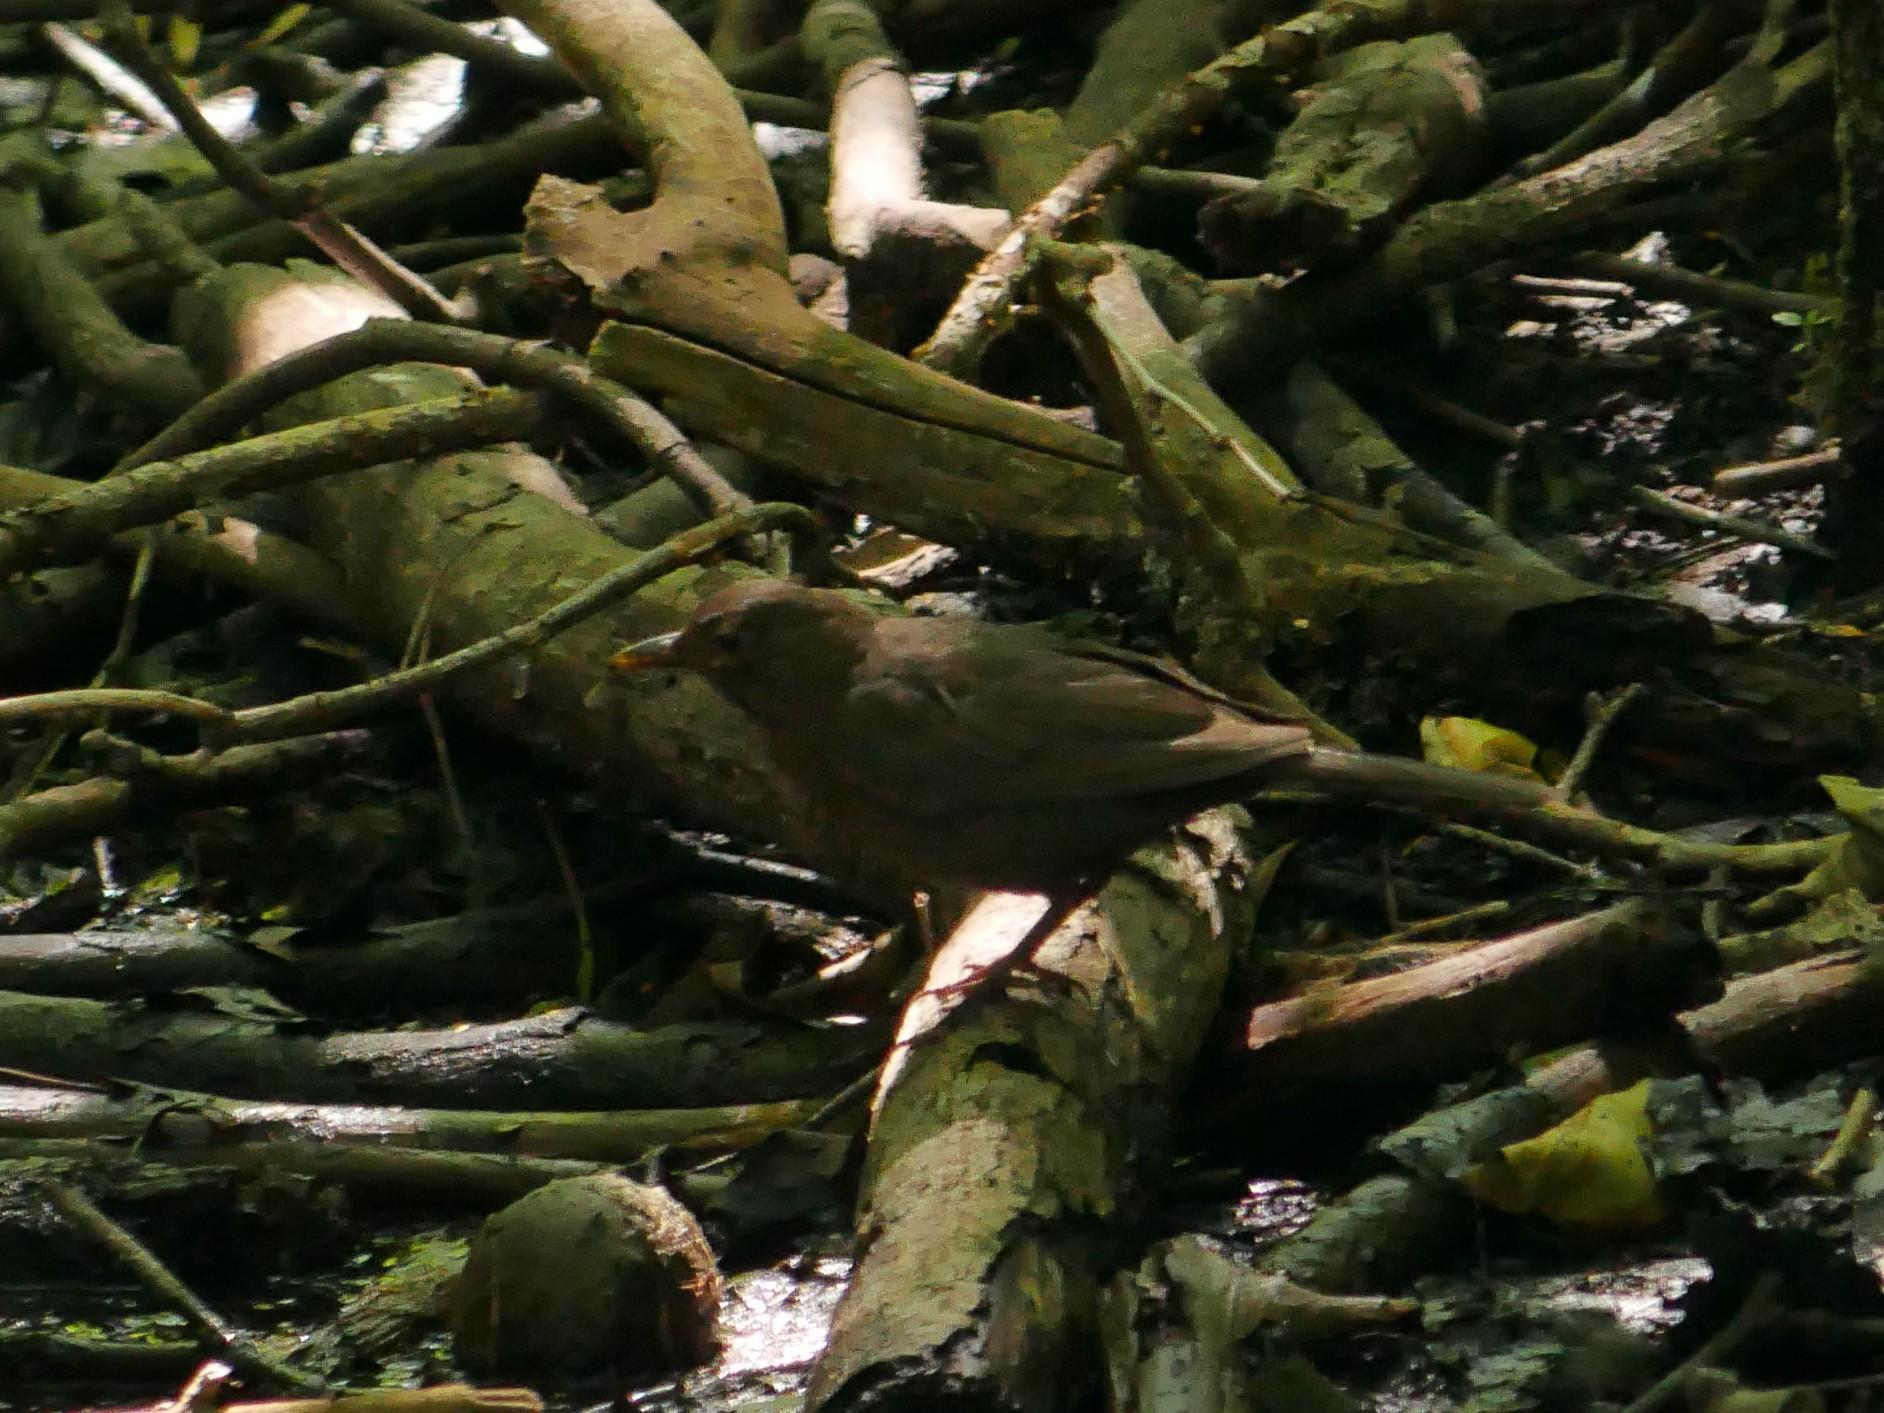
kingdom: Animalia
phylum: Chordata
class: Aves
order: Passeriformes
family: Turdidae
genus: Turdus
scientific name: Turdus merula
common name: Common blackbird
